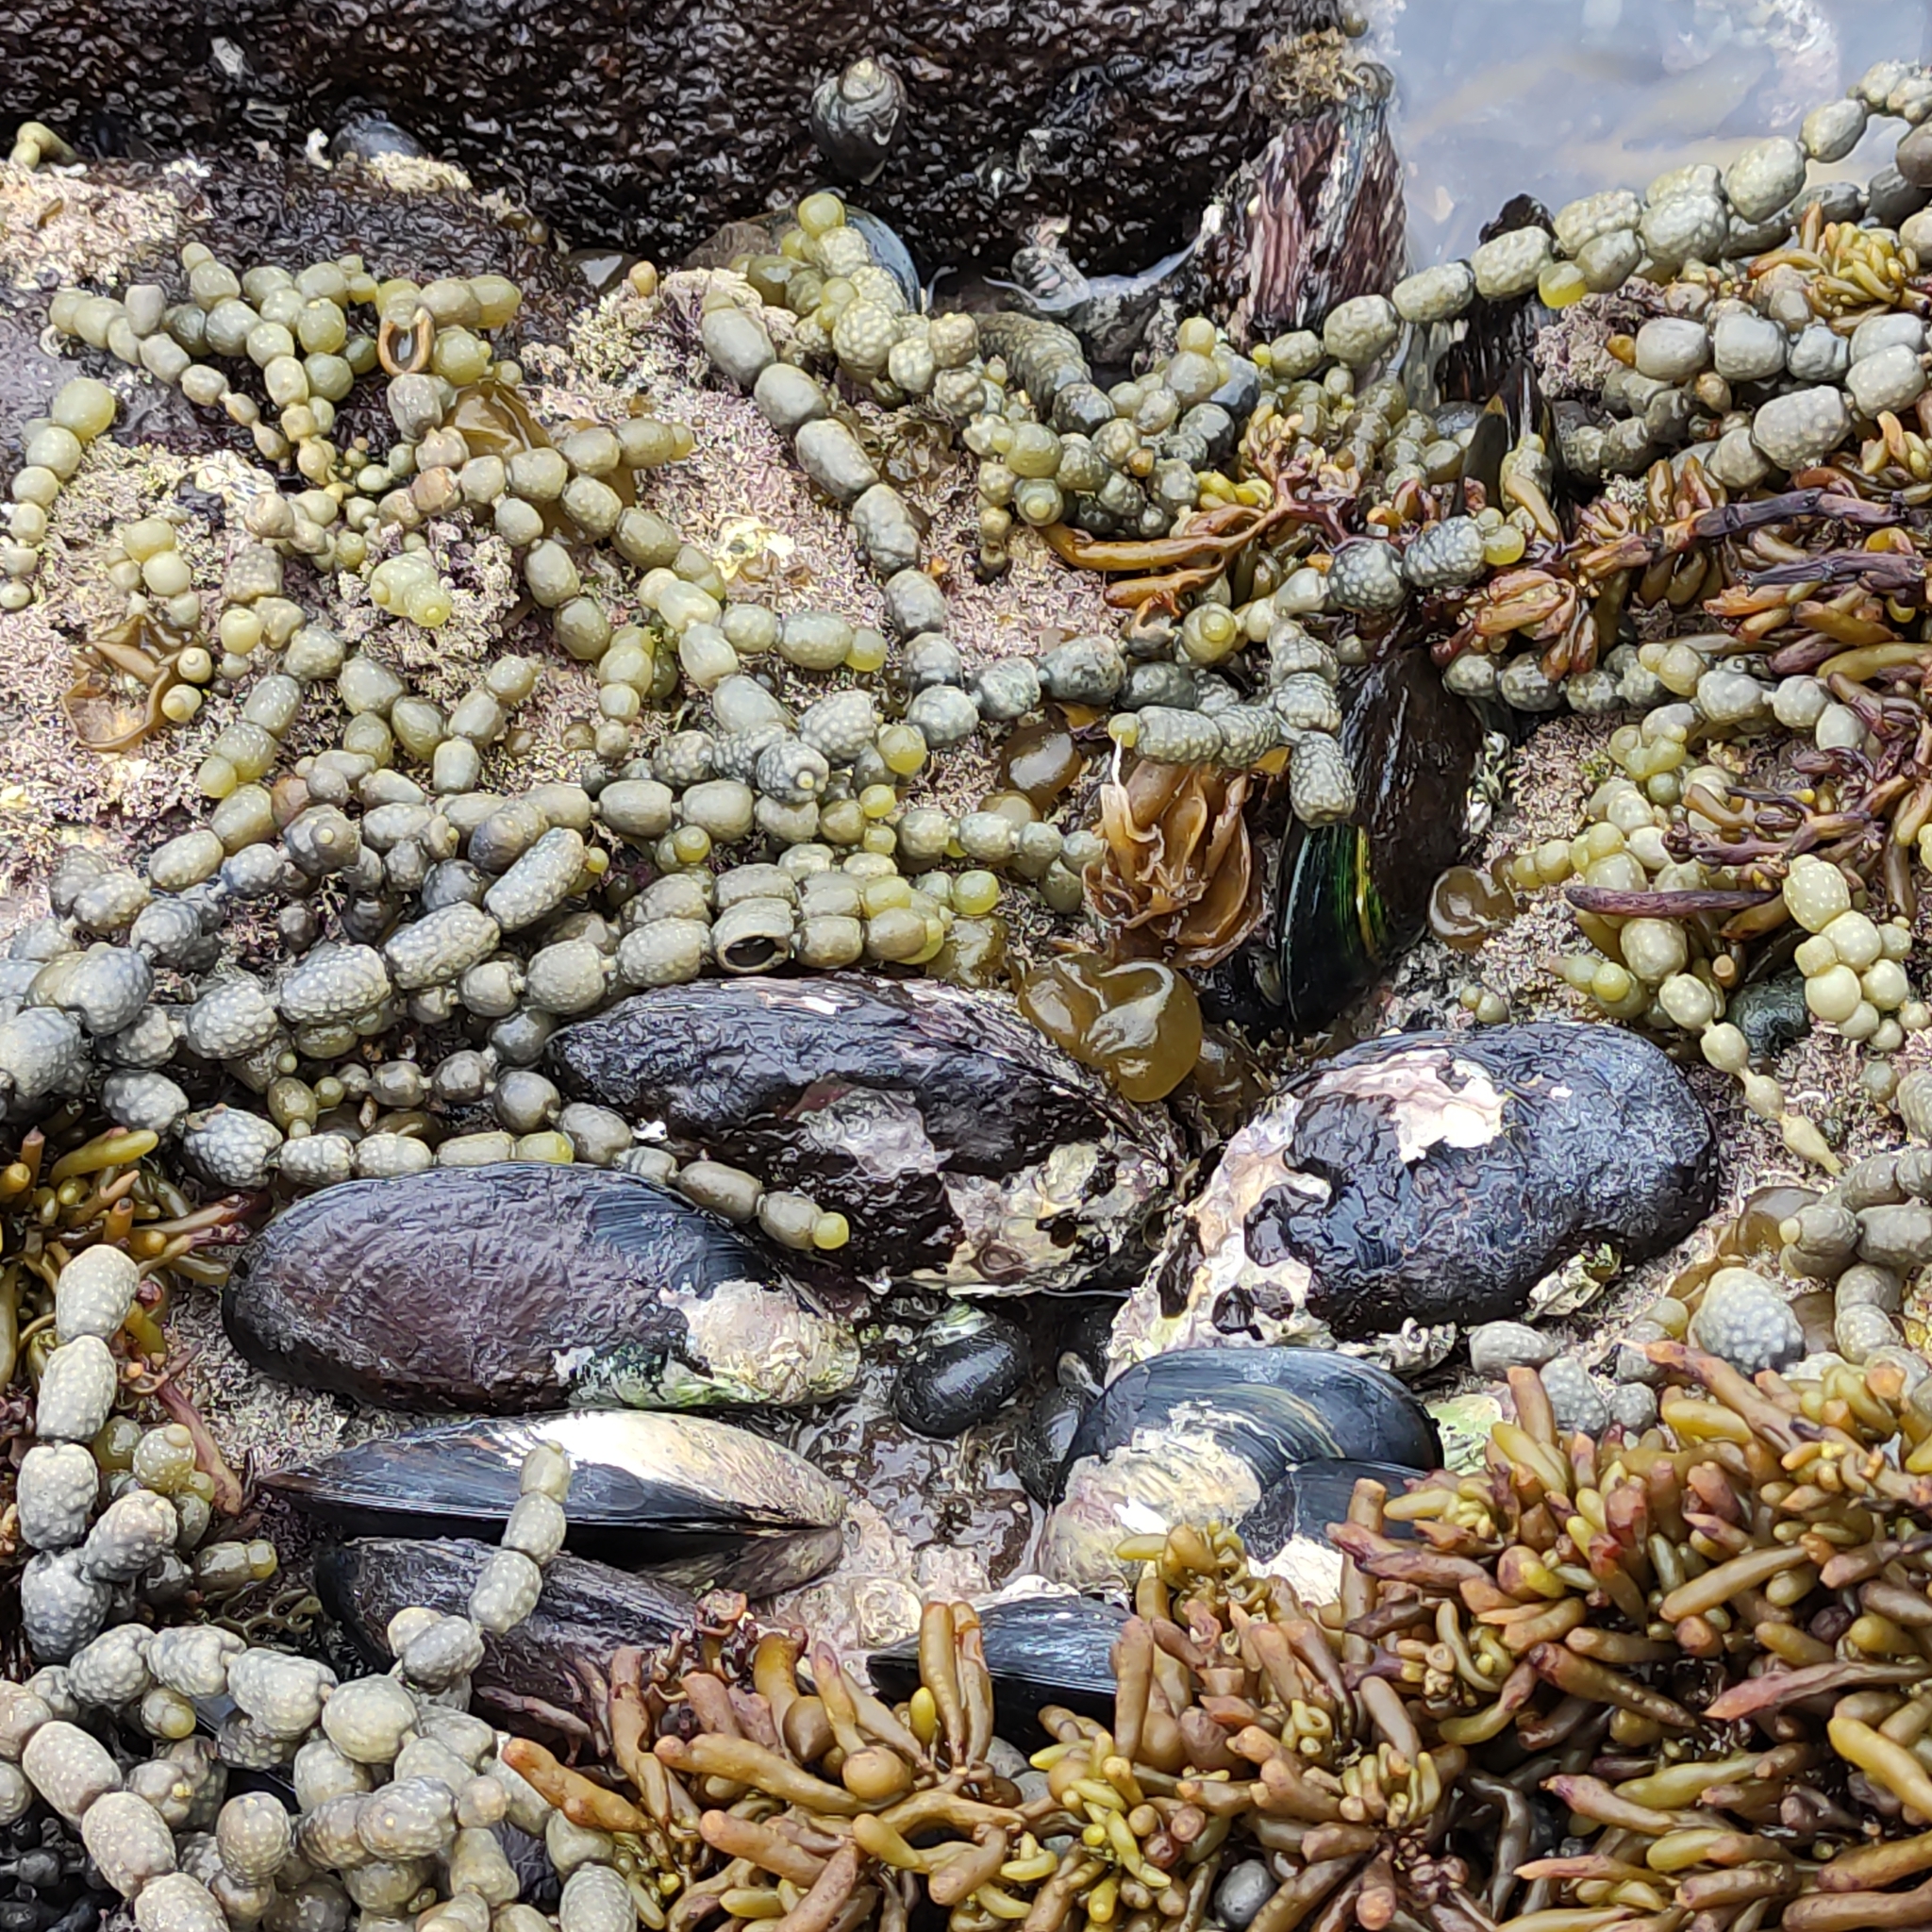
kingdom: Animalia
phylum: Mollusca
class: Bivalvia
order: Mytilida
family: Mytilidae
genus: Perna
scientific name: Perna canaliculus
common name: New zealand greenshelltm
